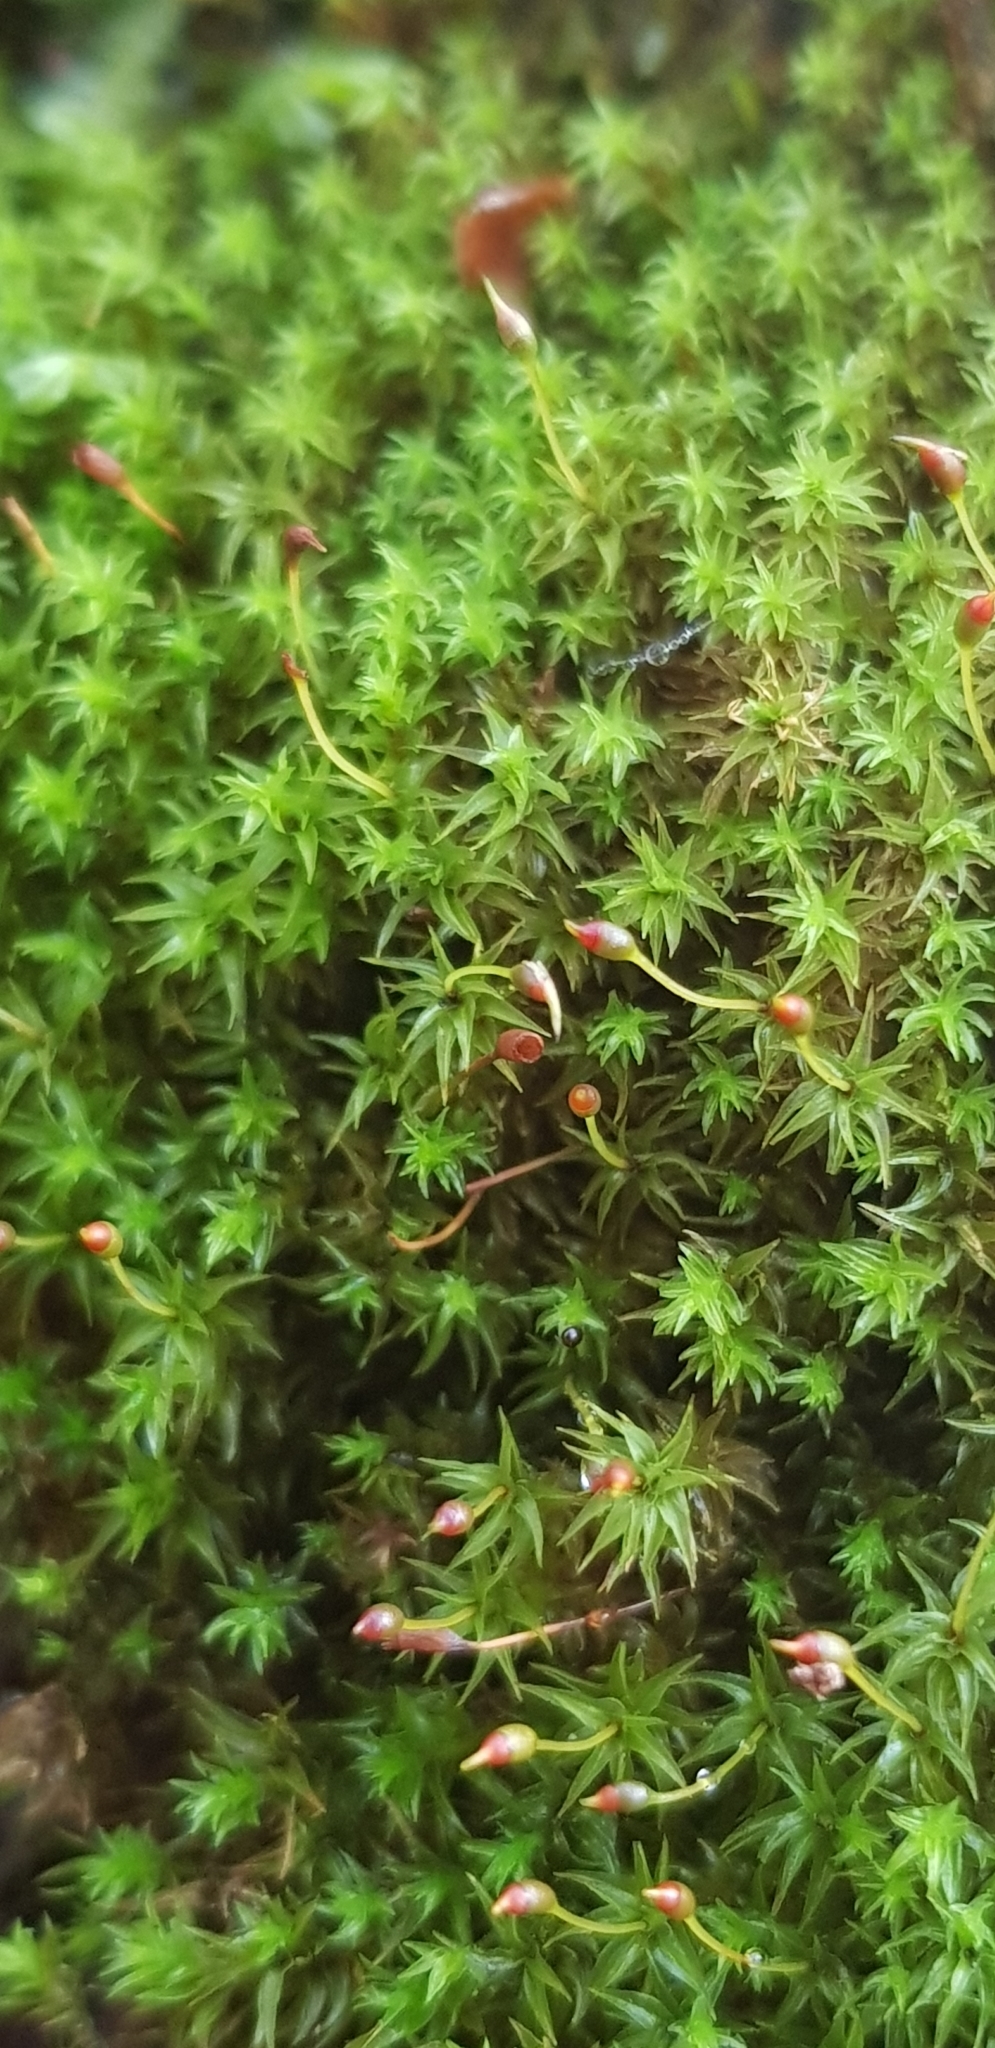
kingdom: Plantae
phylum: Bryophyta
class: Bryopsida
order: Dicranales
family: Aongstroemiaceae
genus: Dichodontium
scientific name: Dichodontium pellucidum
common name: Transparent fork moss
